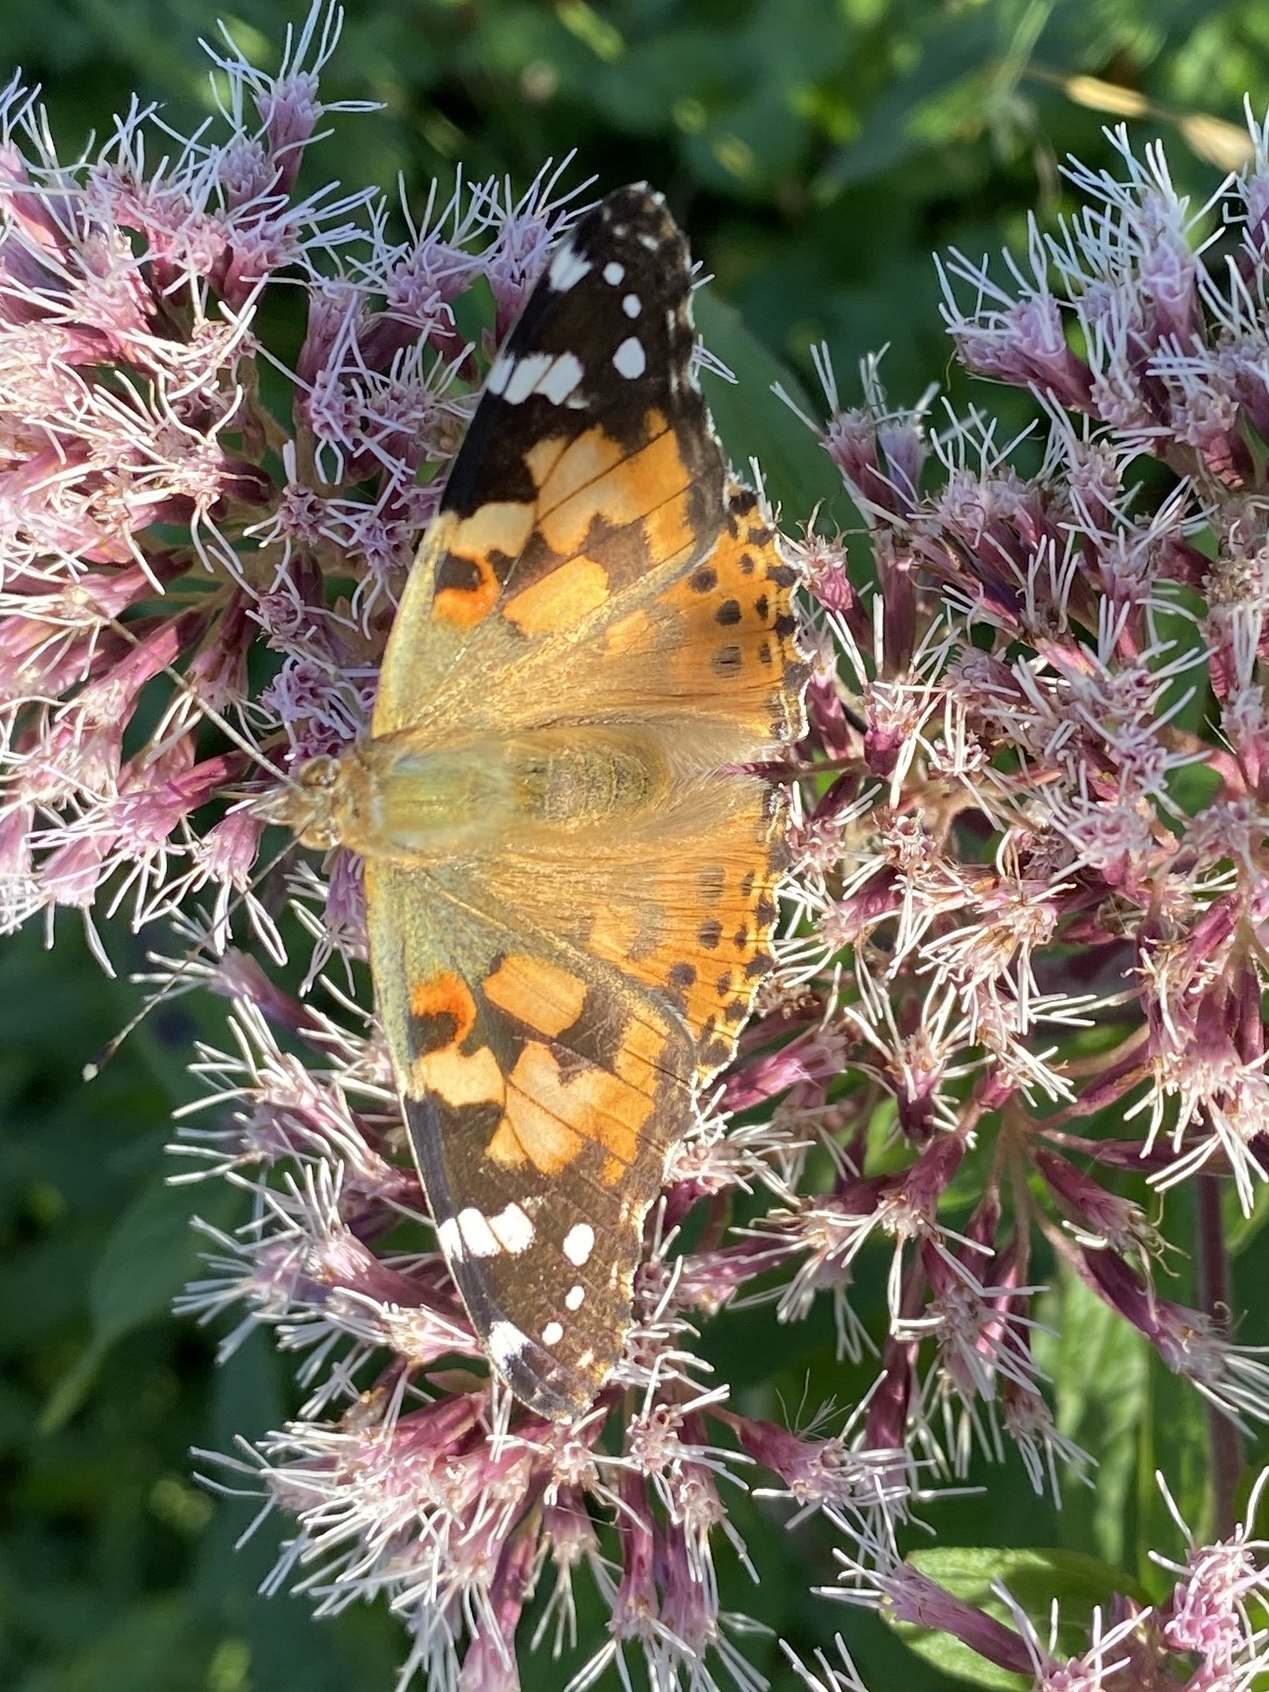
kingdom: Animalia
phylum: Arthropoda
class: Insecta
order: Lepidoptera
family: Nymphalidae
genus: Vanessa
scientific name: Vanessa cardui
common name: Painted lady
